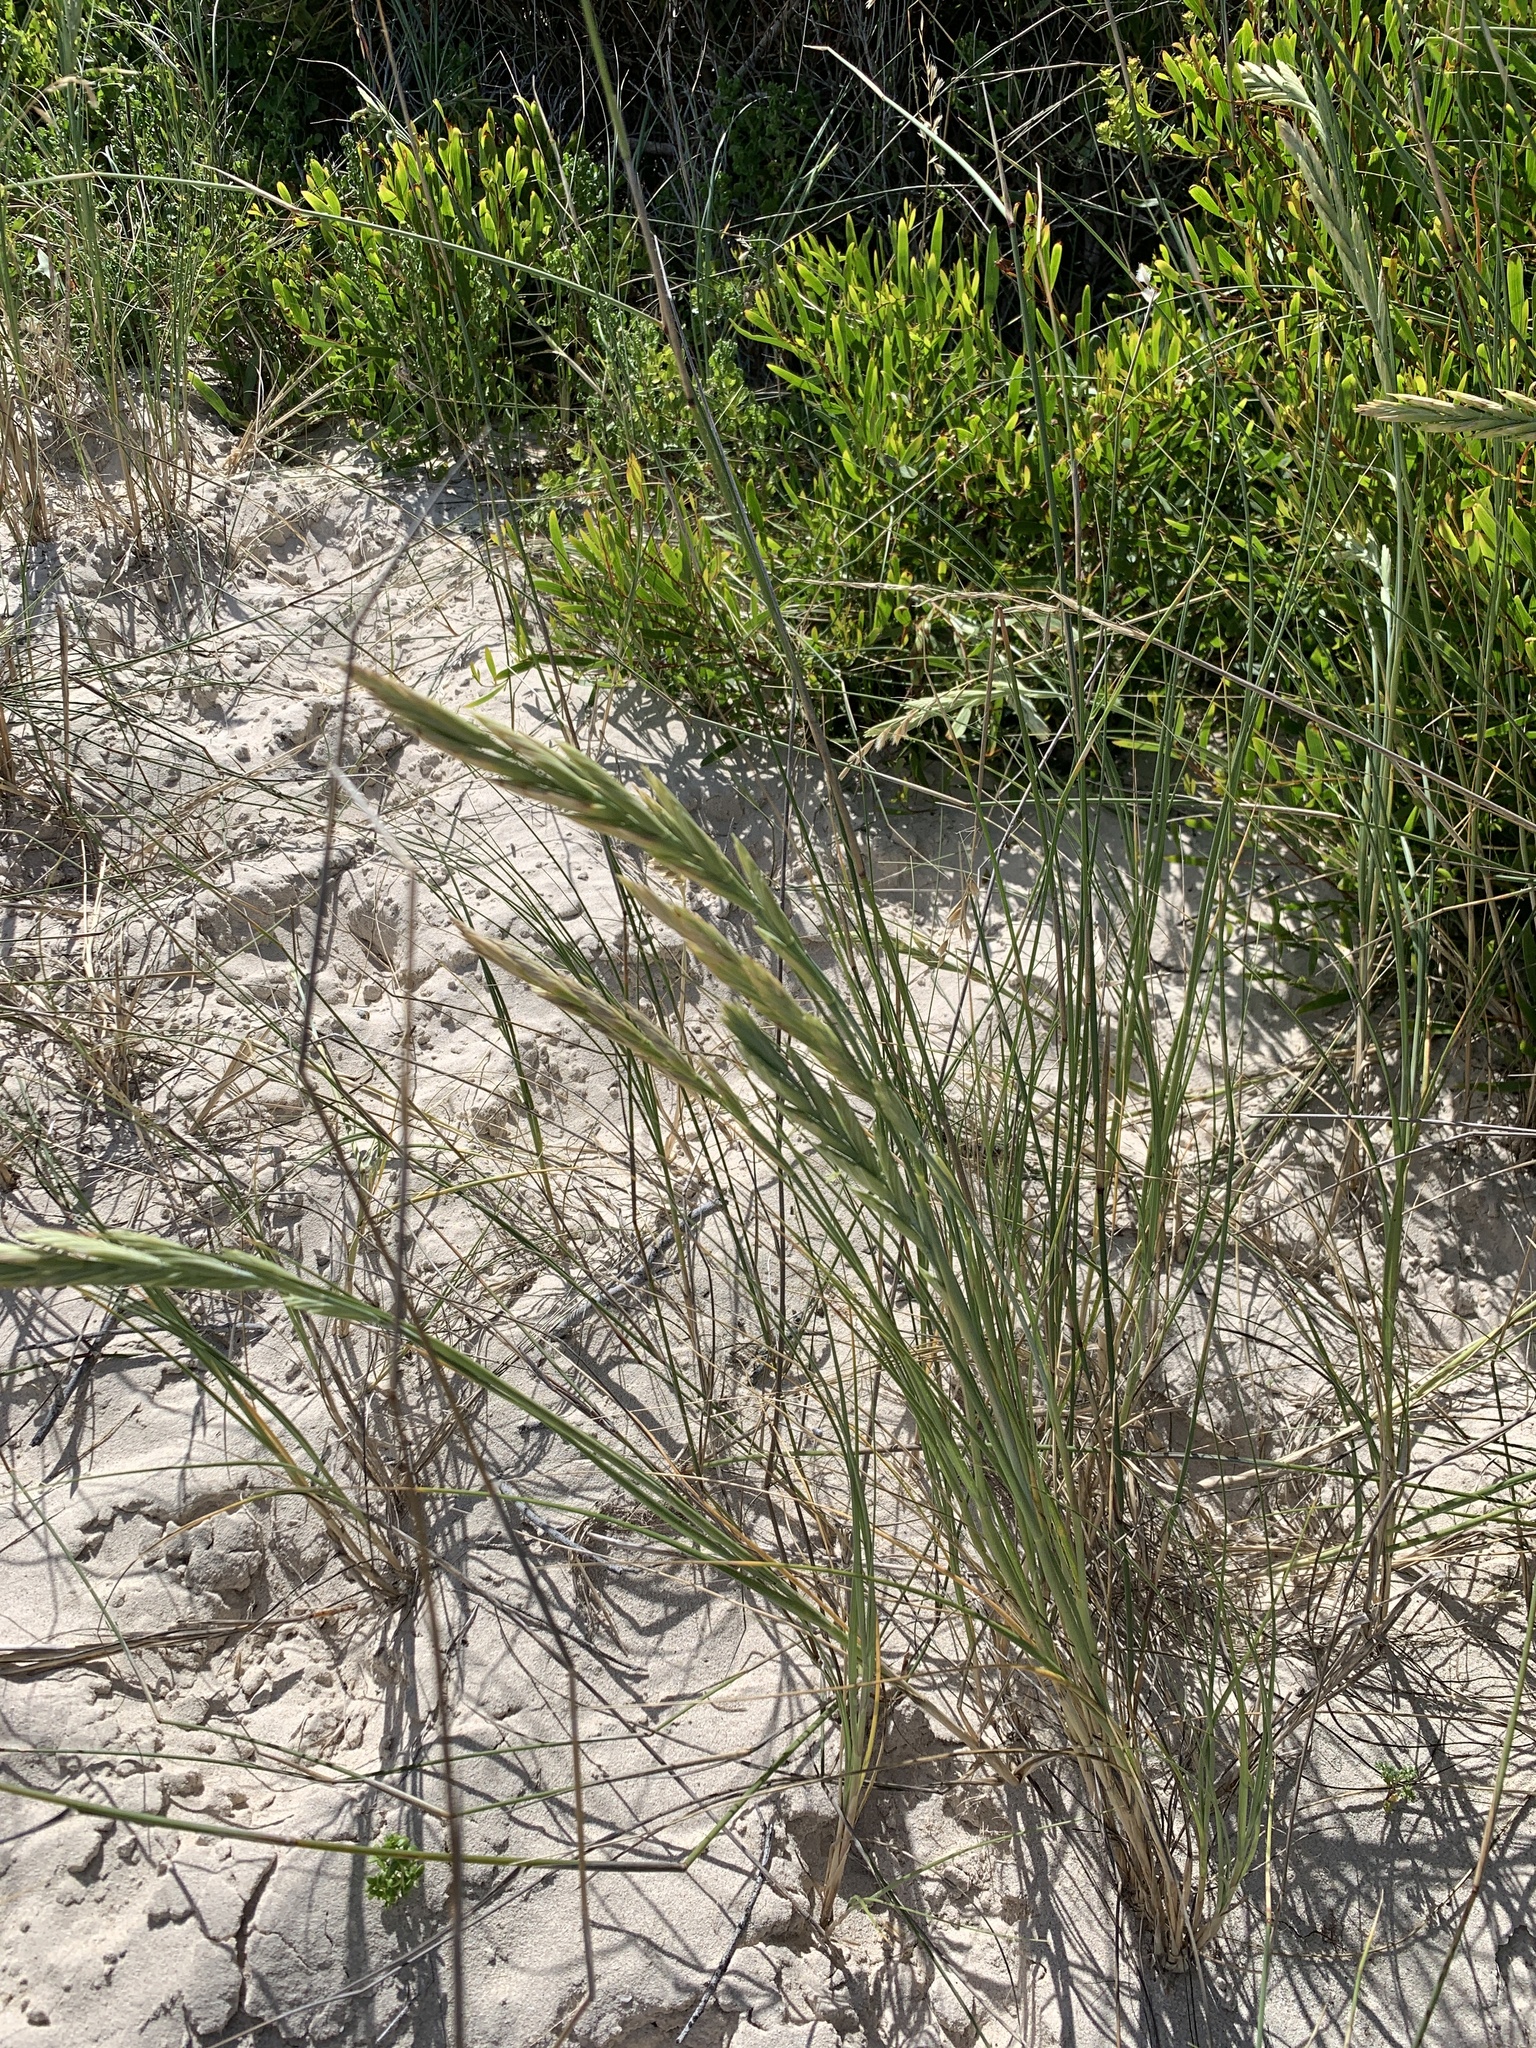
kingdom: Plantae
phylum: Tracheophyta
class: Liliopsida
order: Poales
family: Poaceae
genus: Thinopyrum
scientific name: Thinopyrum distichum
